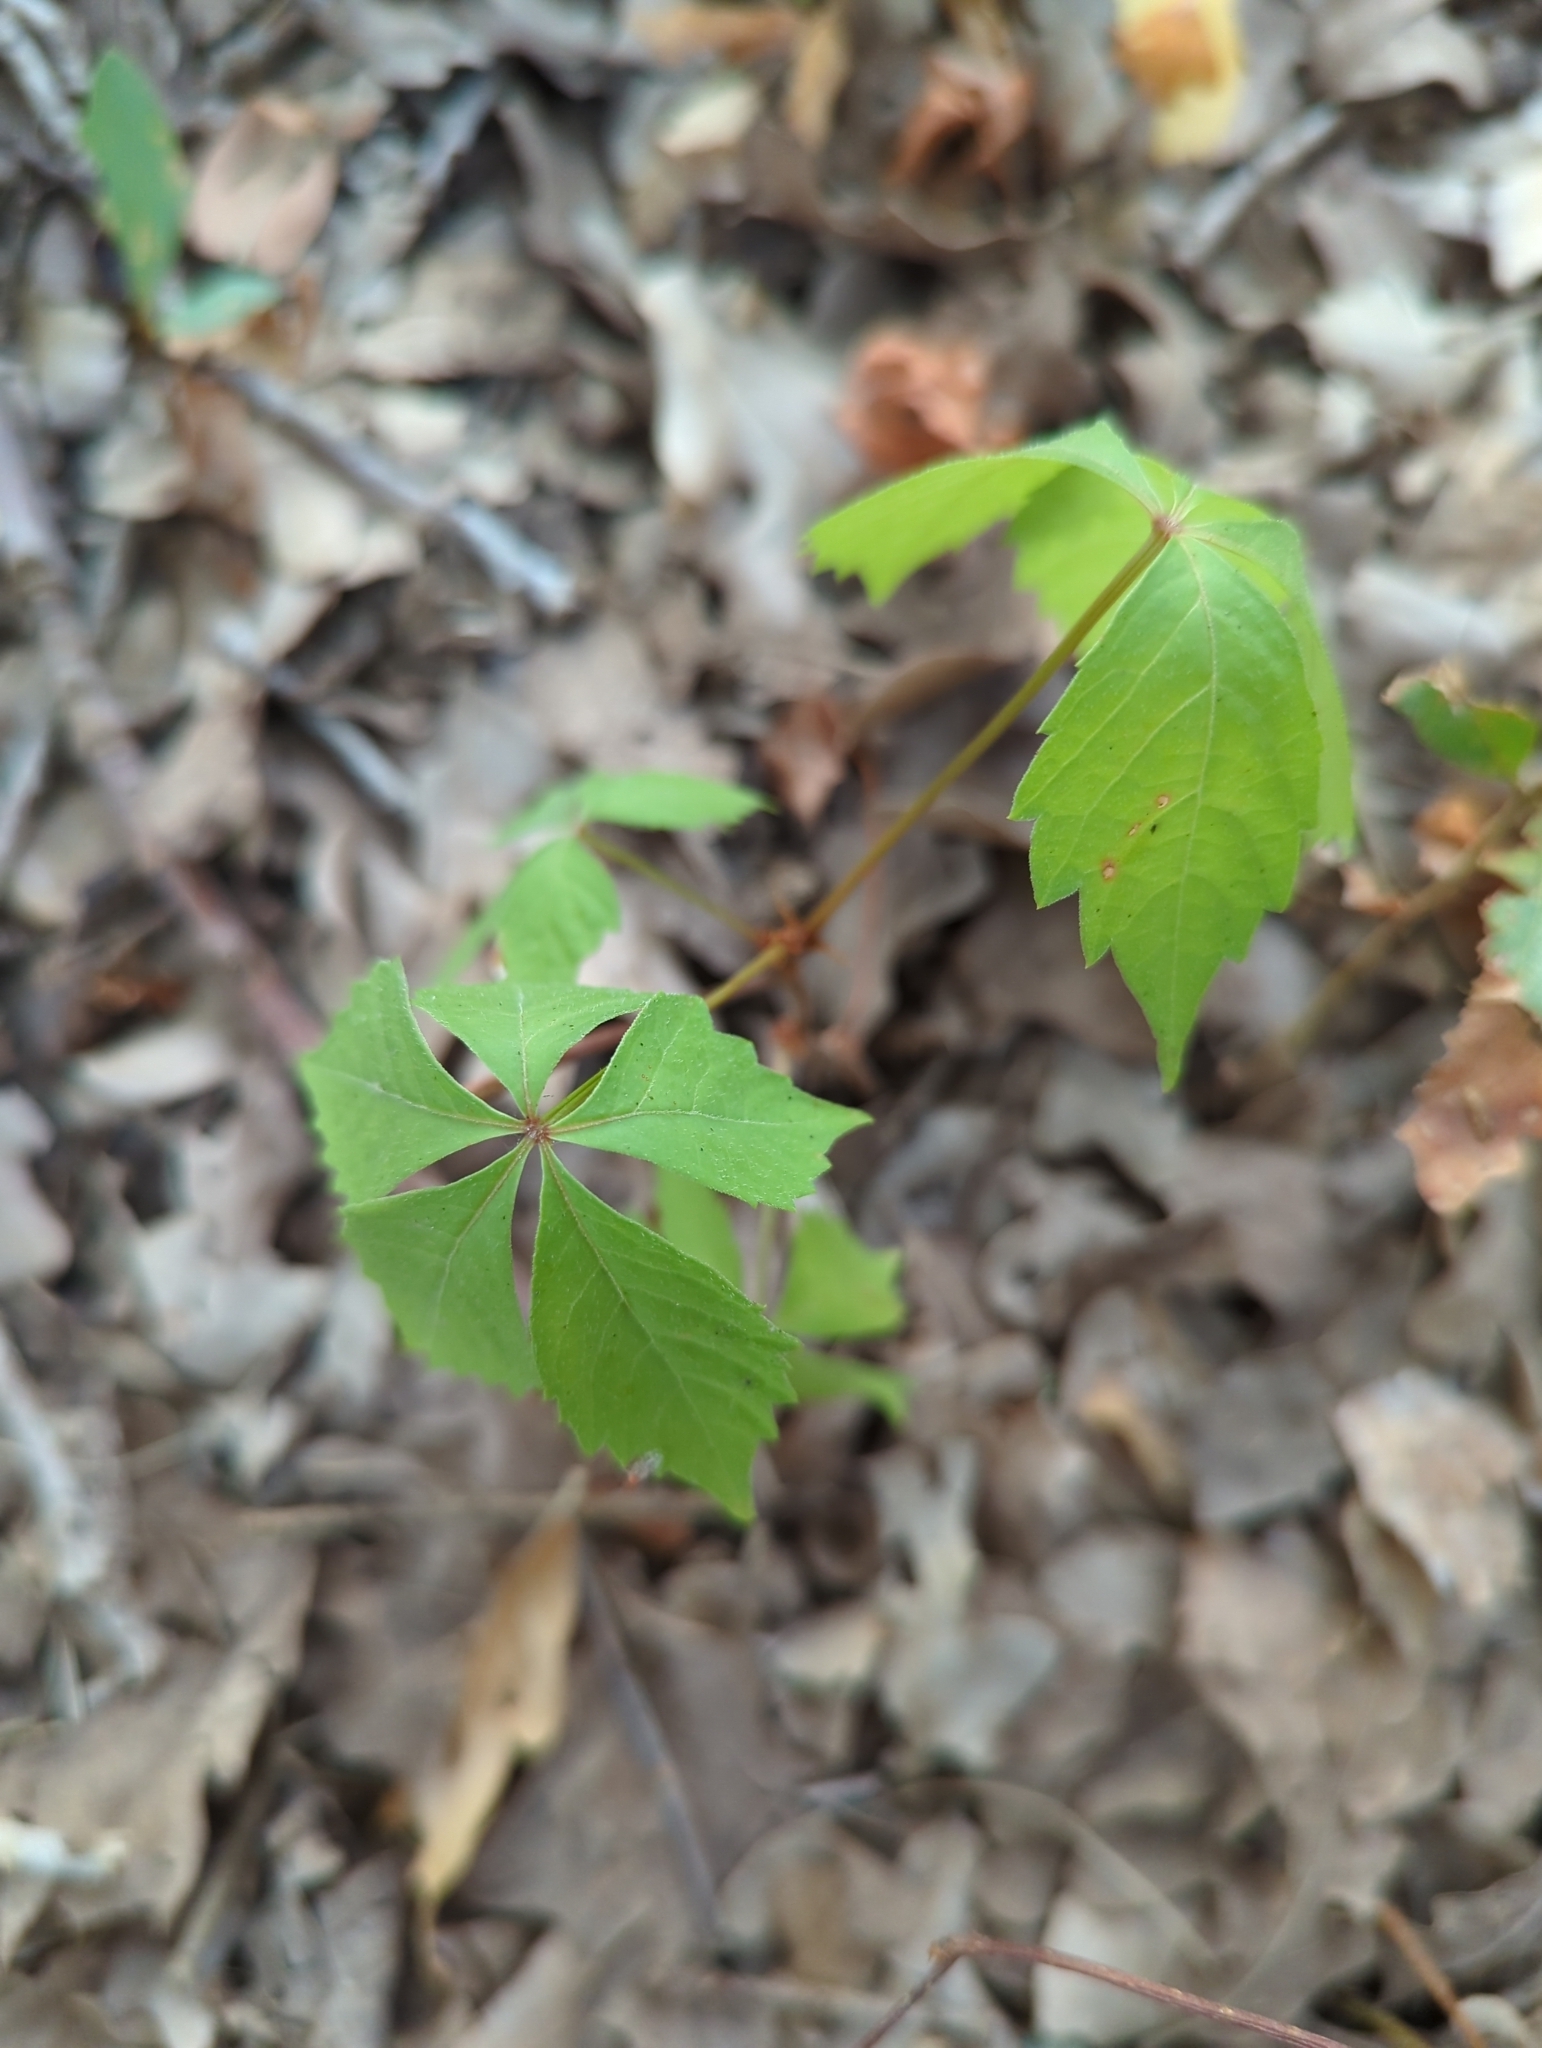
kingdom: Plantae
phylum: Tracheophyta
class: Magnoliopsida
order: Vitales
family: Vitaceae
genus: Parthenocissus
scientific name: Parthenocissus quinquefolia
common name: Virginia-creeper
